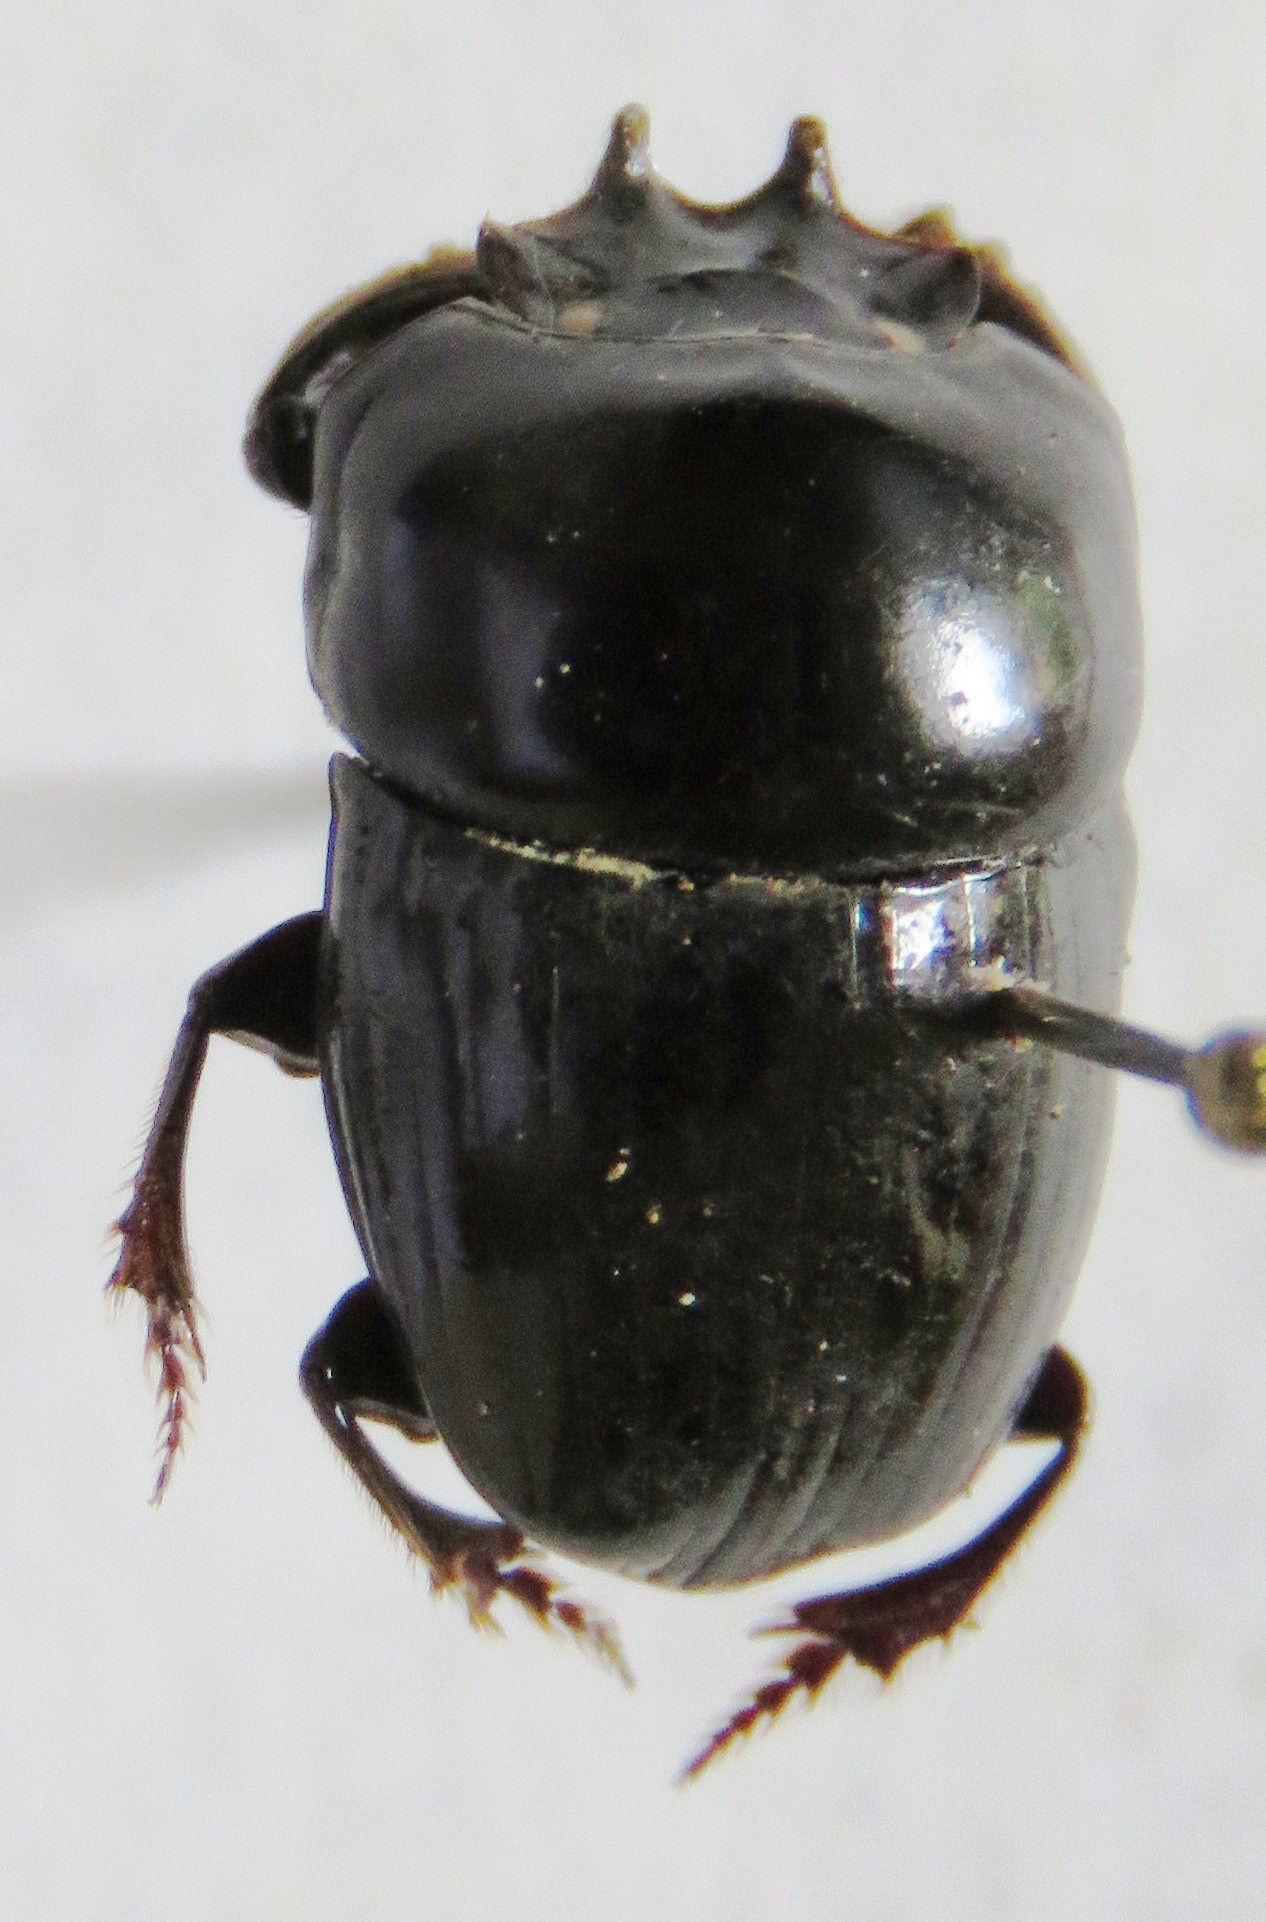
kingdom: Animalia
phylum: Arthropoda
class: Insecta
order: Coleoptera
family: Scarabaeidae
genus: Uroxys
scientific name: Uroxys gorgon
